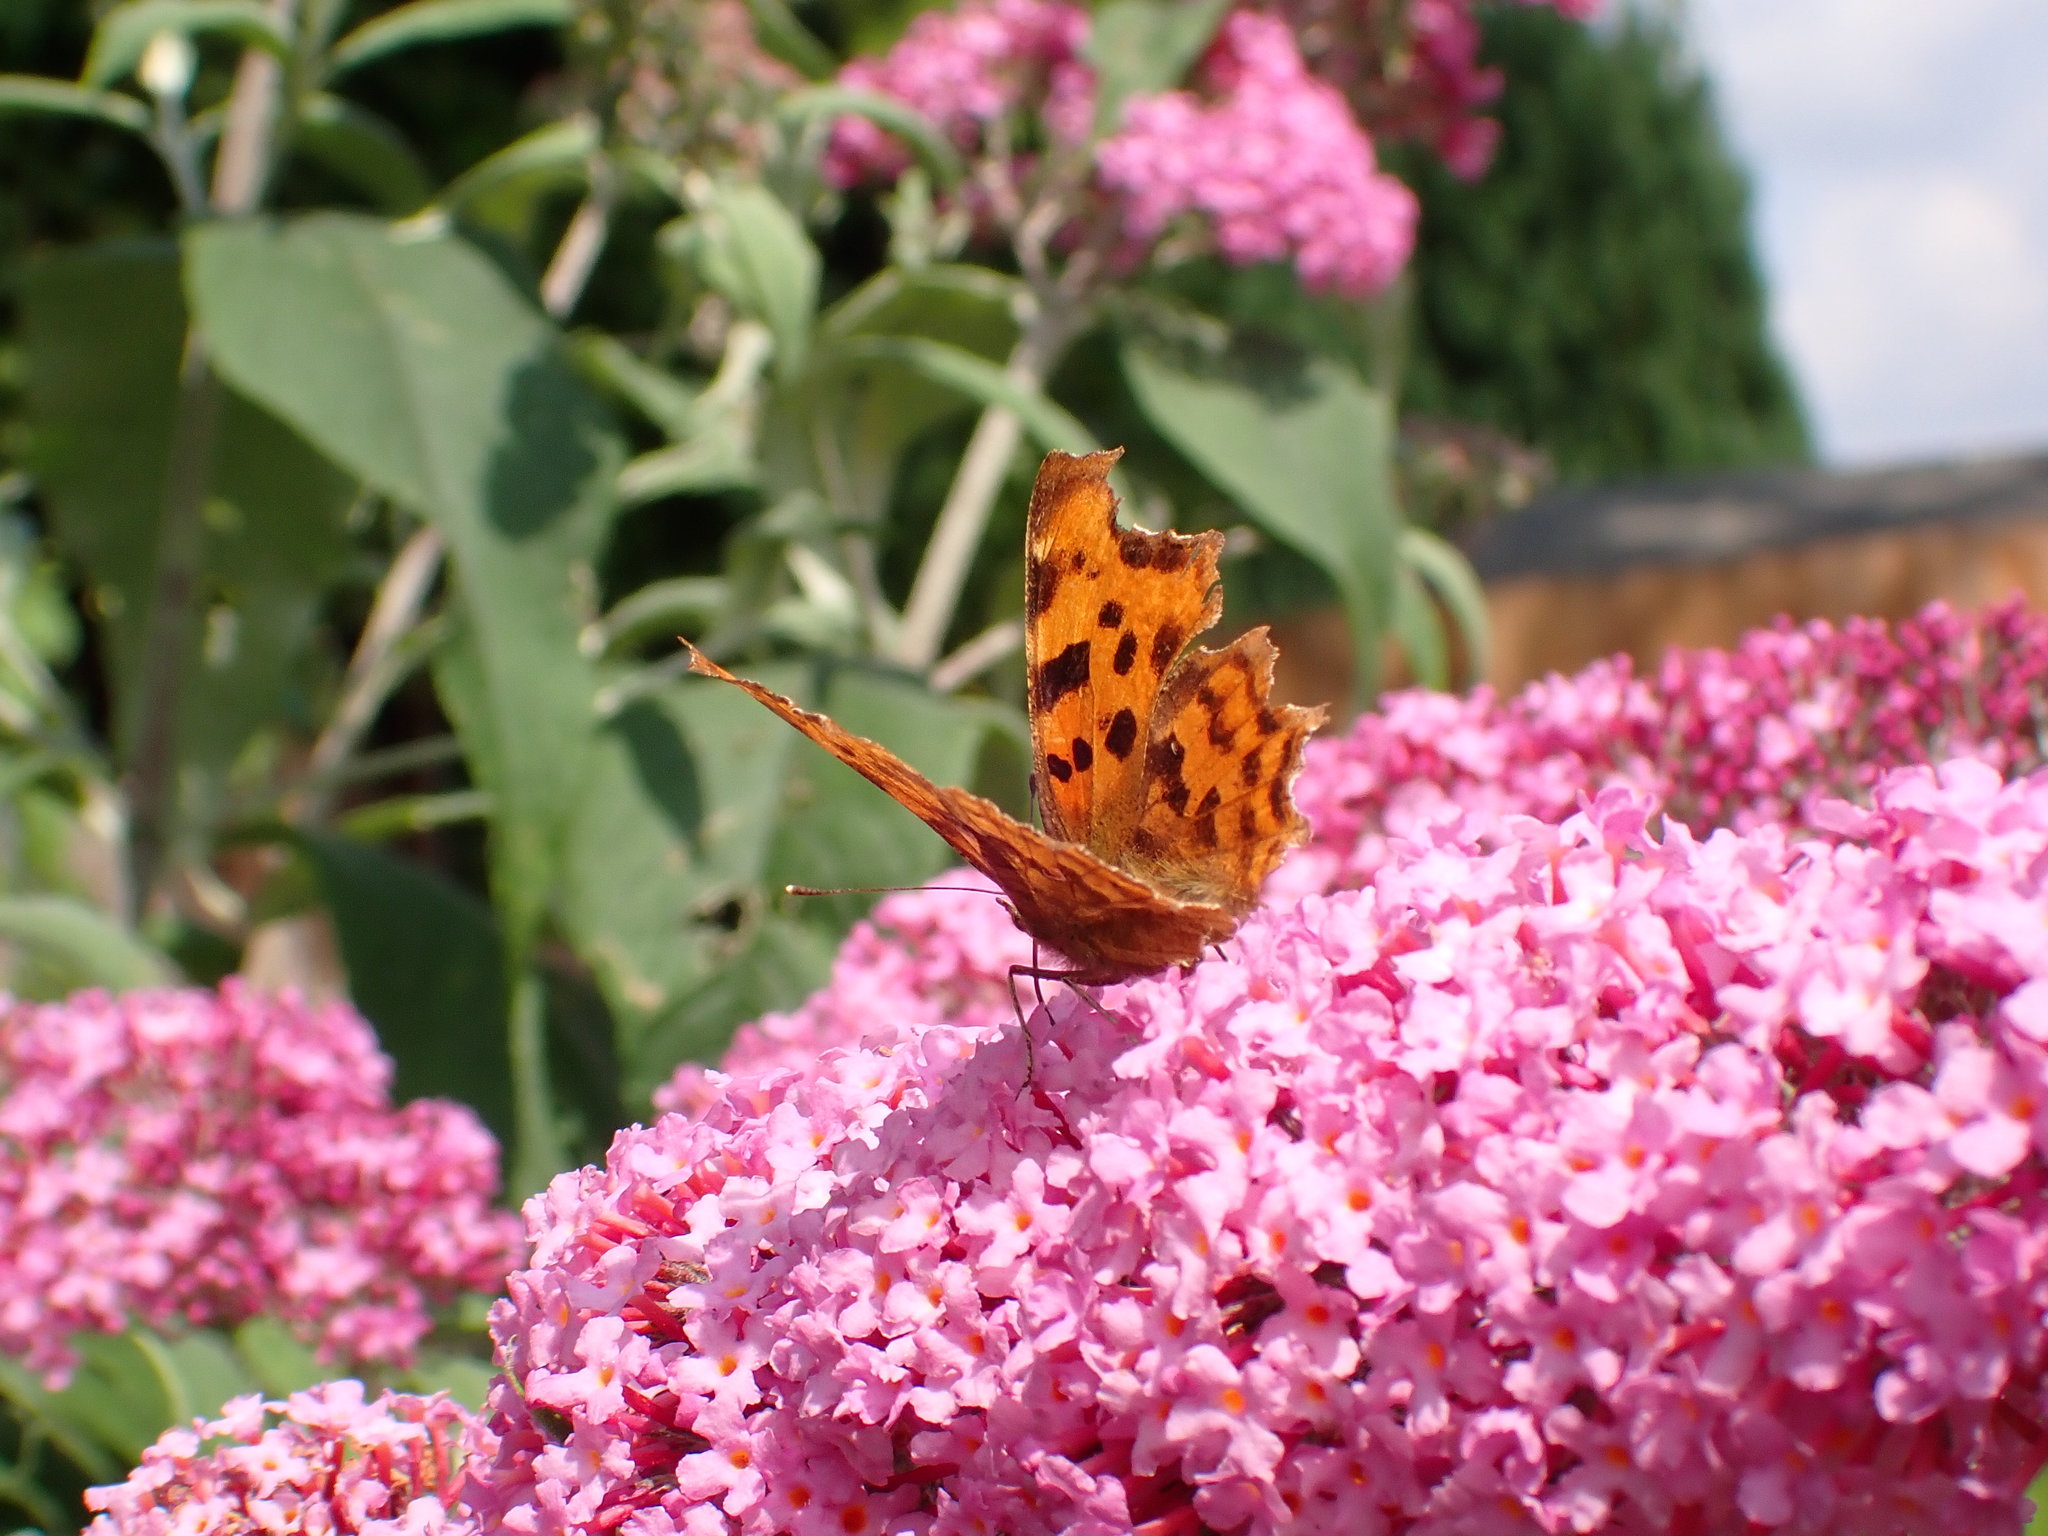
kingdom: Animalia
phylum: Arthropoda
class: Insecta
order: Lepidoptera
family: Nymphalidae
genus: Polygonia
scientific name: Polygonia c-album
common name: Comma
